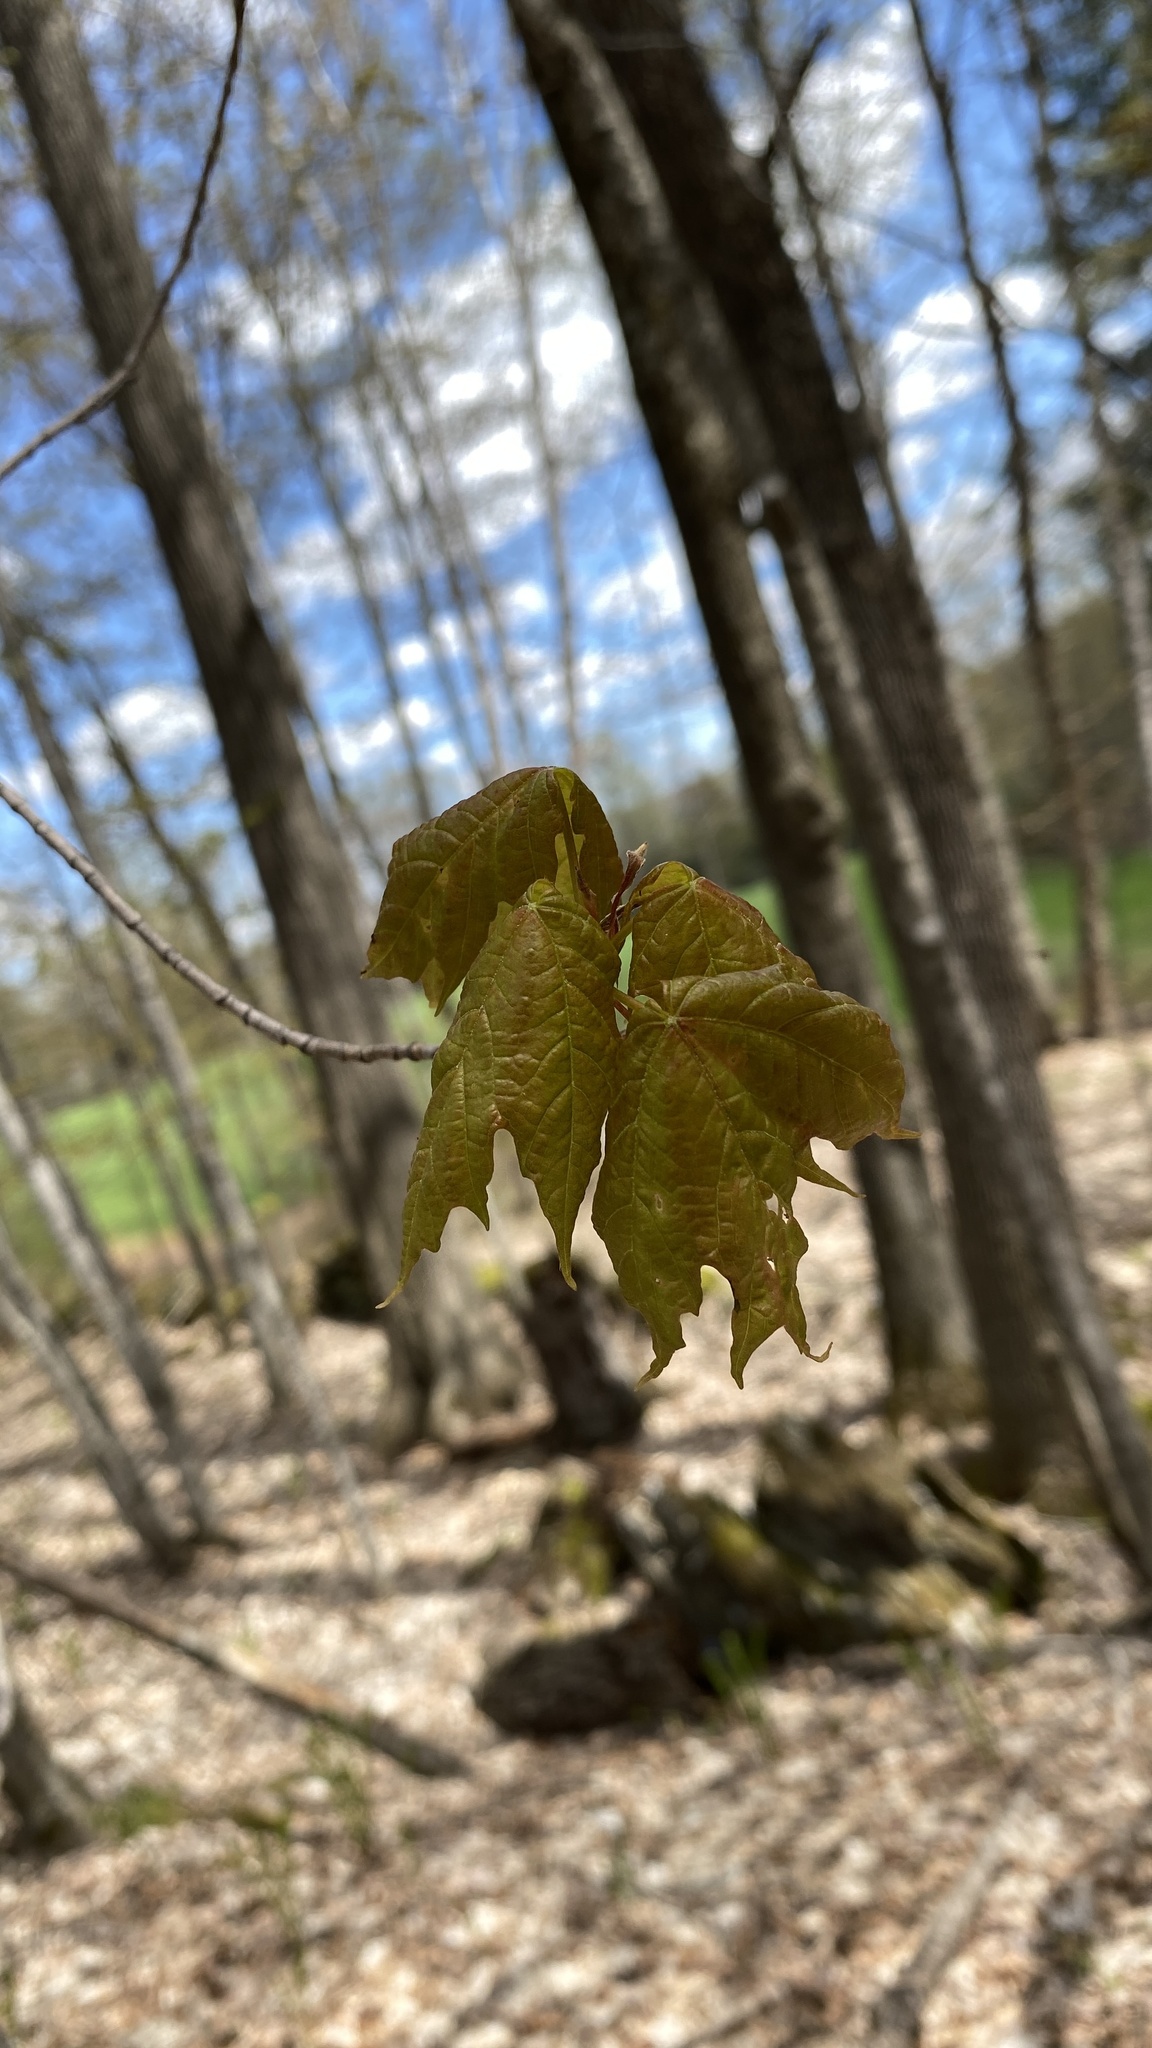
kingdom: Plantae
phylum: Tracheophyta
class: Magnoliopsida
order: Sapindales
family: Sapindaceae
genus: Acer
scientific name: Acer saccharum
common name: Sugar maple
